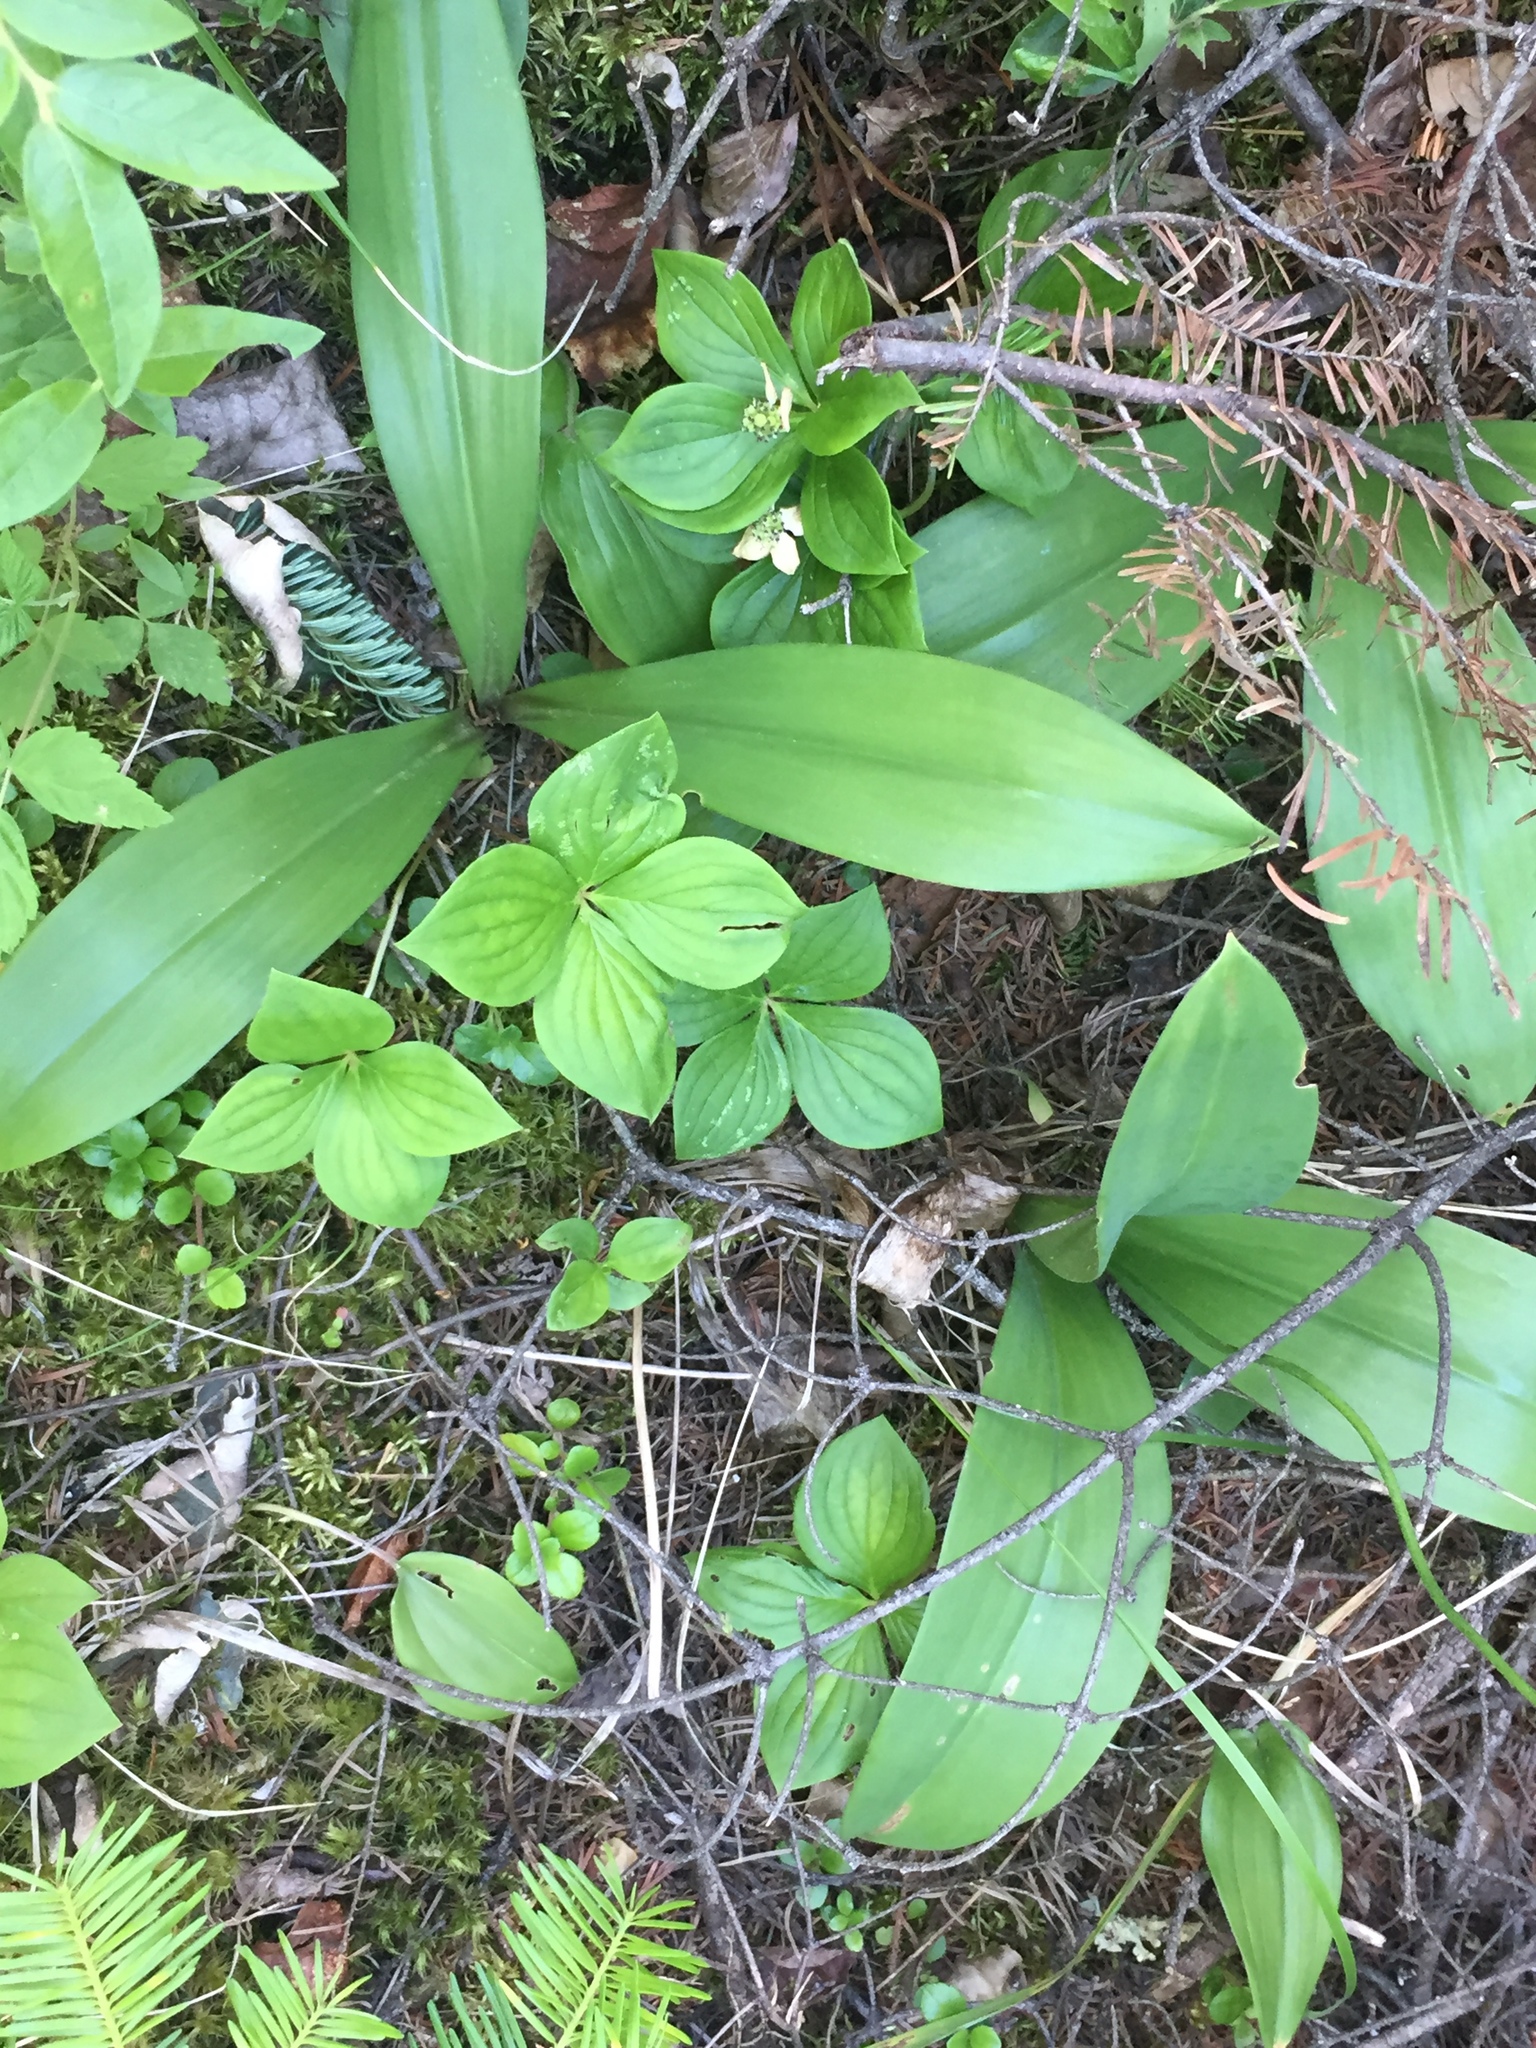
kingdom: Plantae
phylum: Tracheophyta
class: Liliopsida
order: Liliales
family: Liliaceae
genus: Clintonia
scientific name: Clintonia borealis
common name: Yellow clintonia
